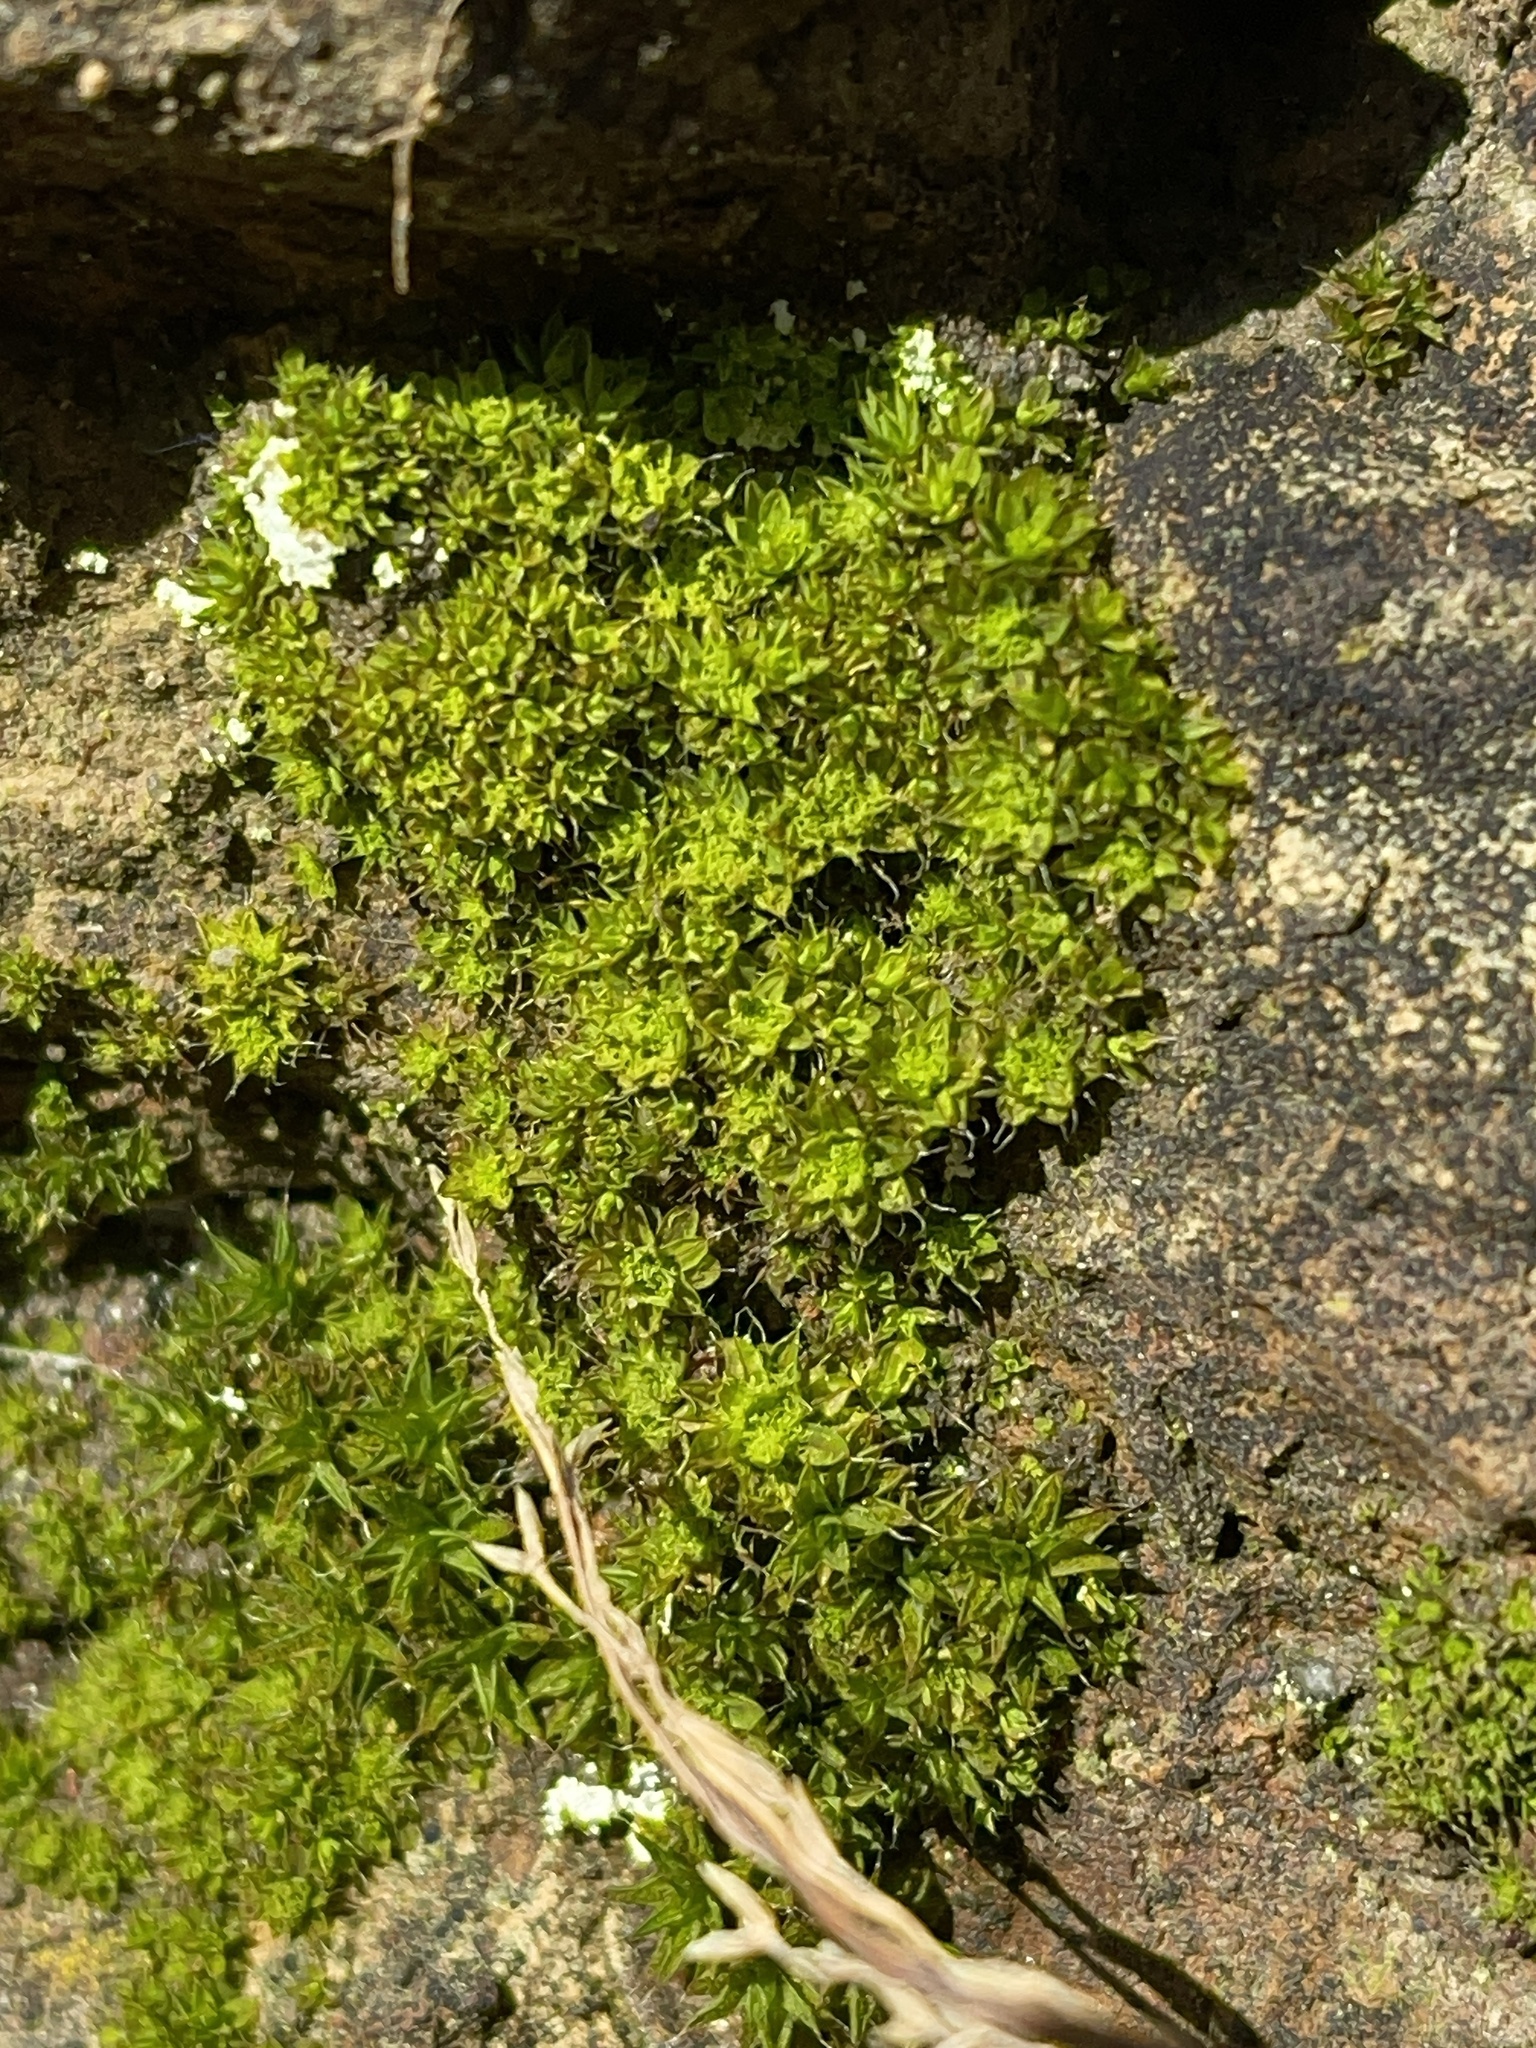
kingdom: Plantae
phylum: Bryophyta
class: Bryopsida
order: Pottiales
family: Pottiaceae
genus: Syntrichia
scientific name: Syntrichia pagorum
